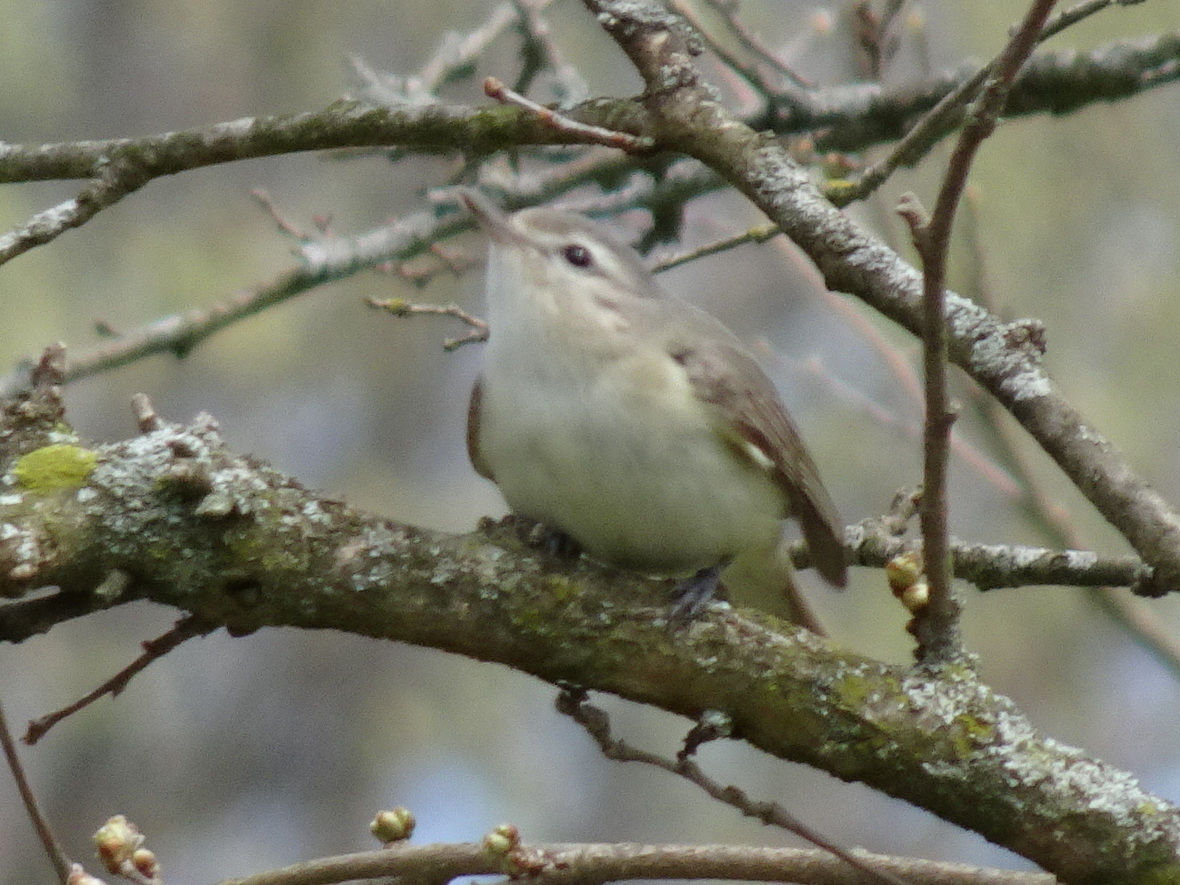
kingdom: Animalia
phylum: Chordata
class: Aves
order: Passeriformes
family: Vireonidae
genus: Vireo
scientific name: Vireo gilvus
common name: Warbling vireo
